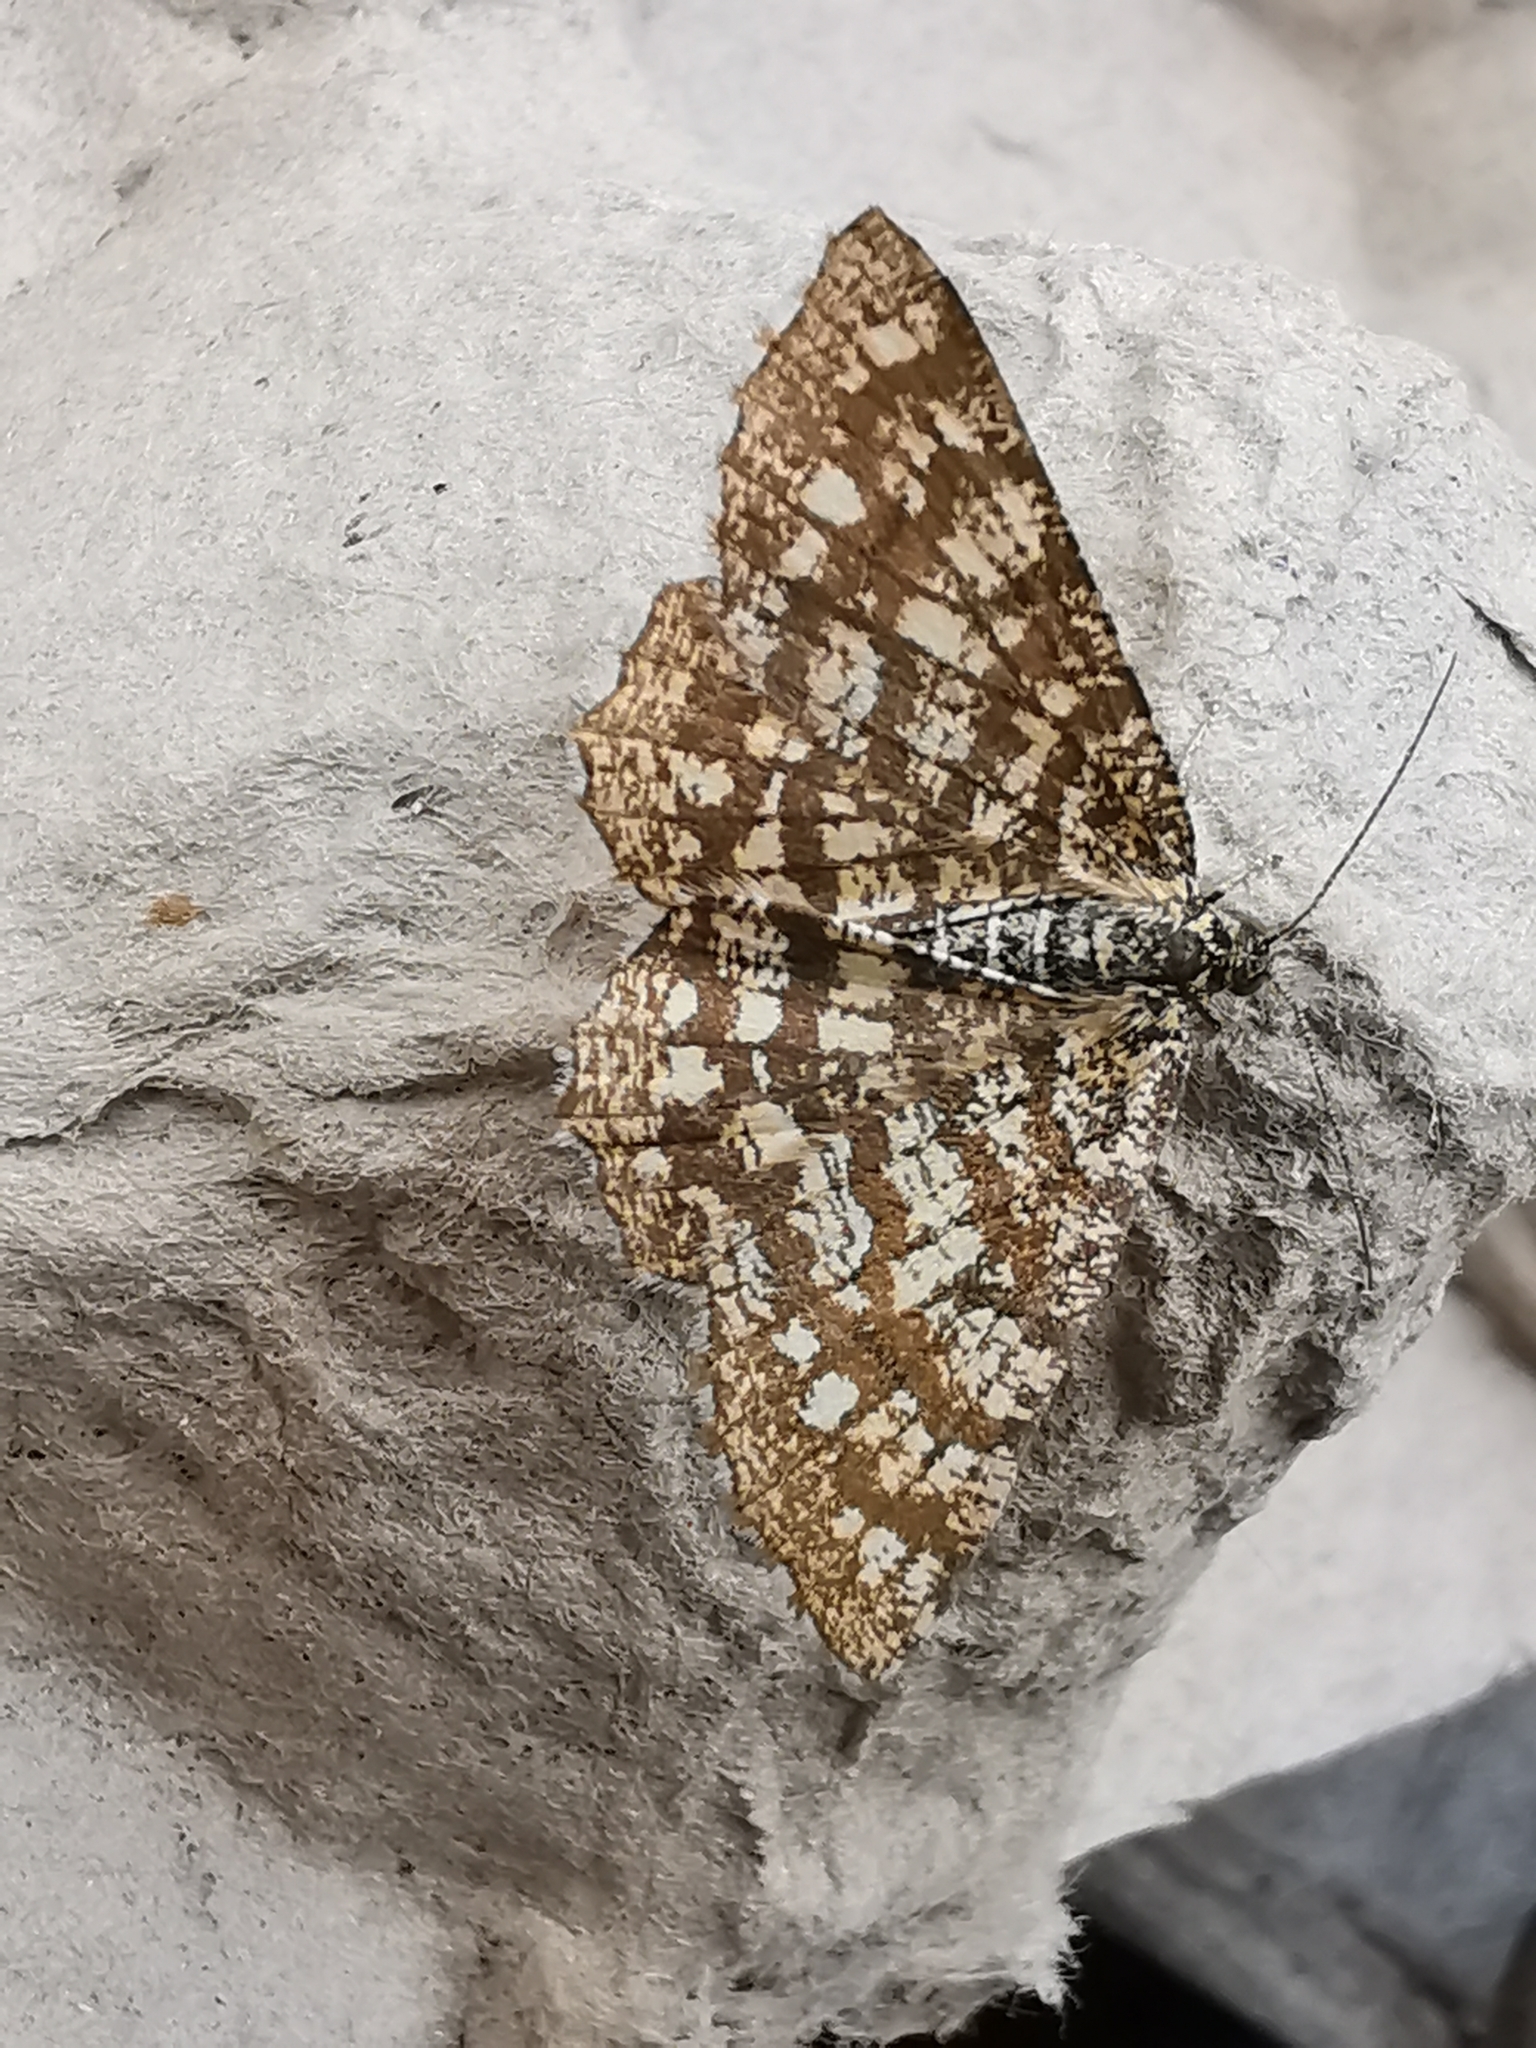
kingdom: Animalia
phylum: Arthropoda
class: Insecta
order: Lepidoptera
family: Geometridae
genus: Chiasmia
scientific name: Chiasmia clathrata
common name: Latticed heath
